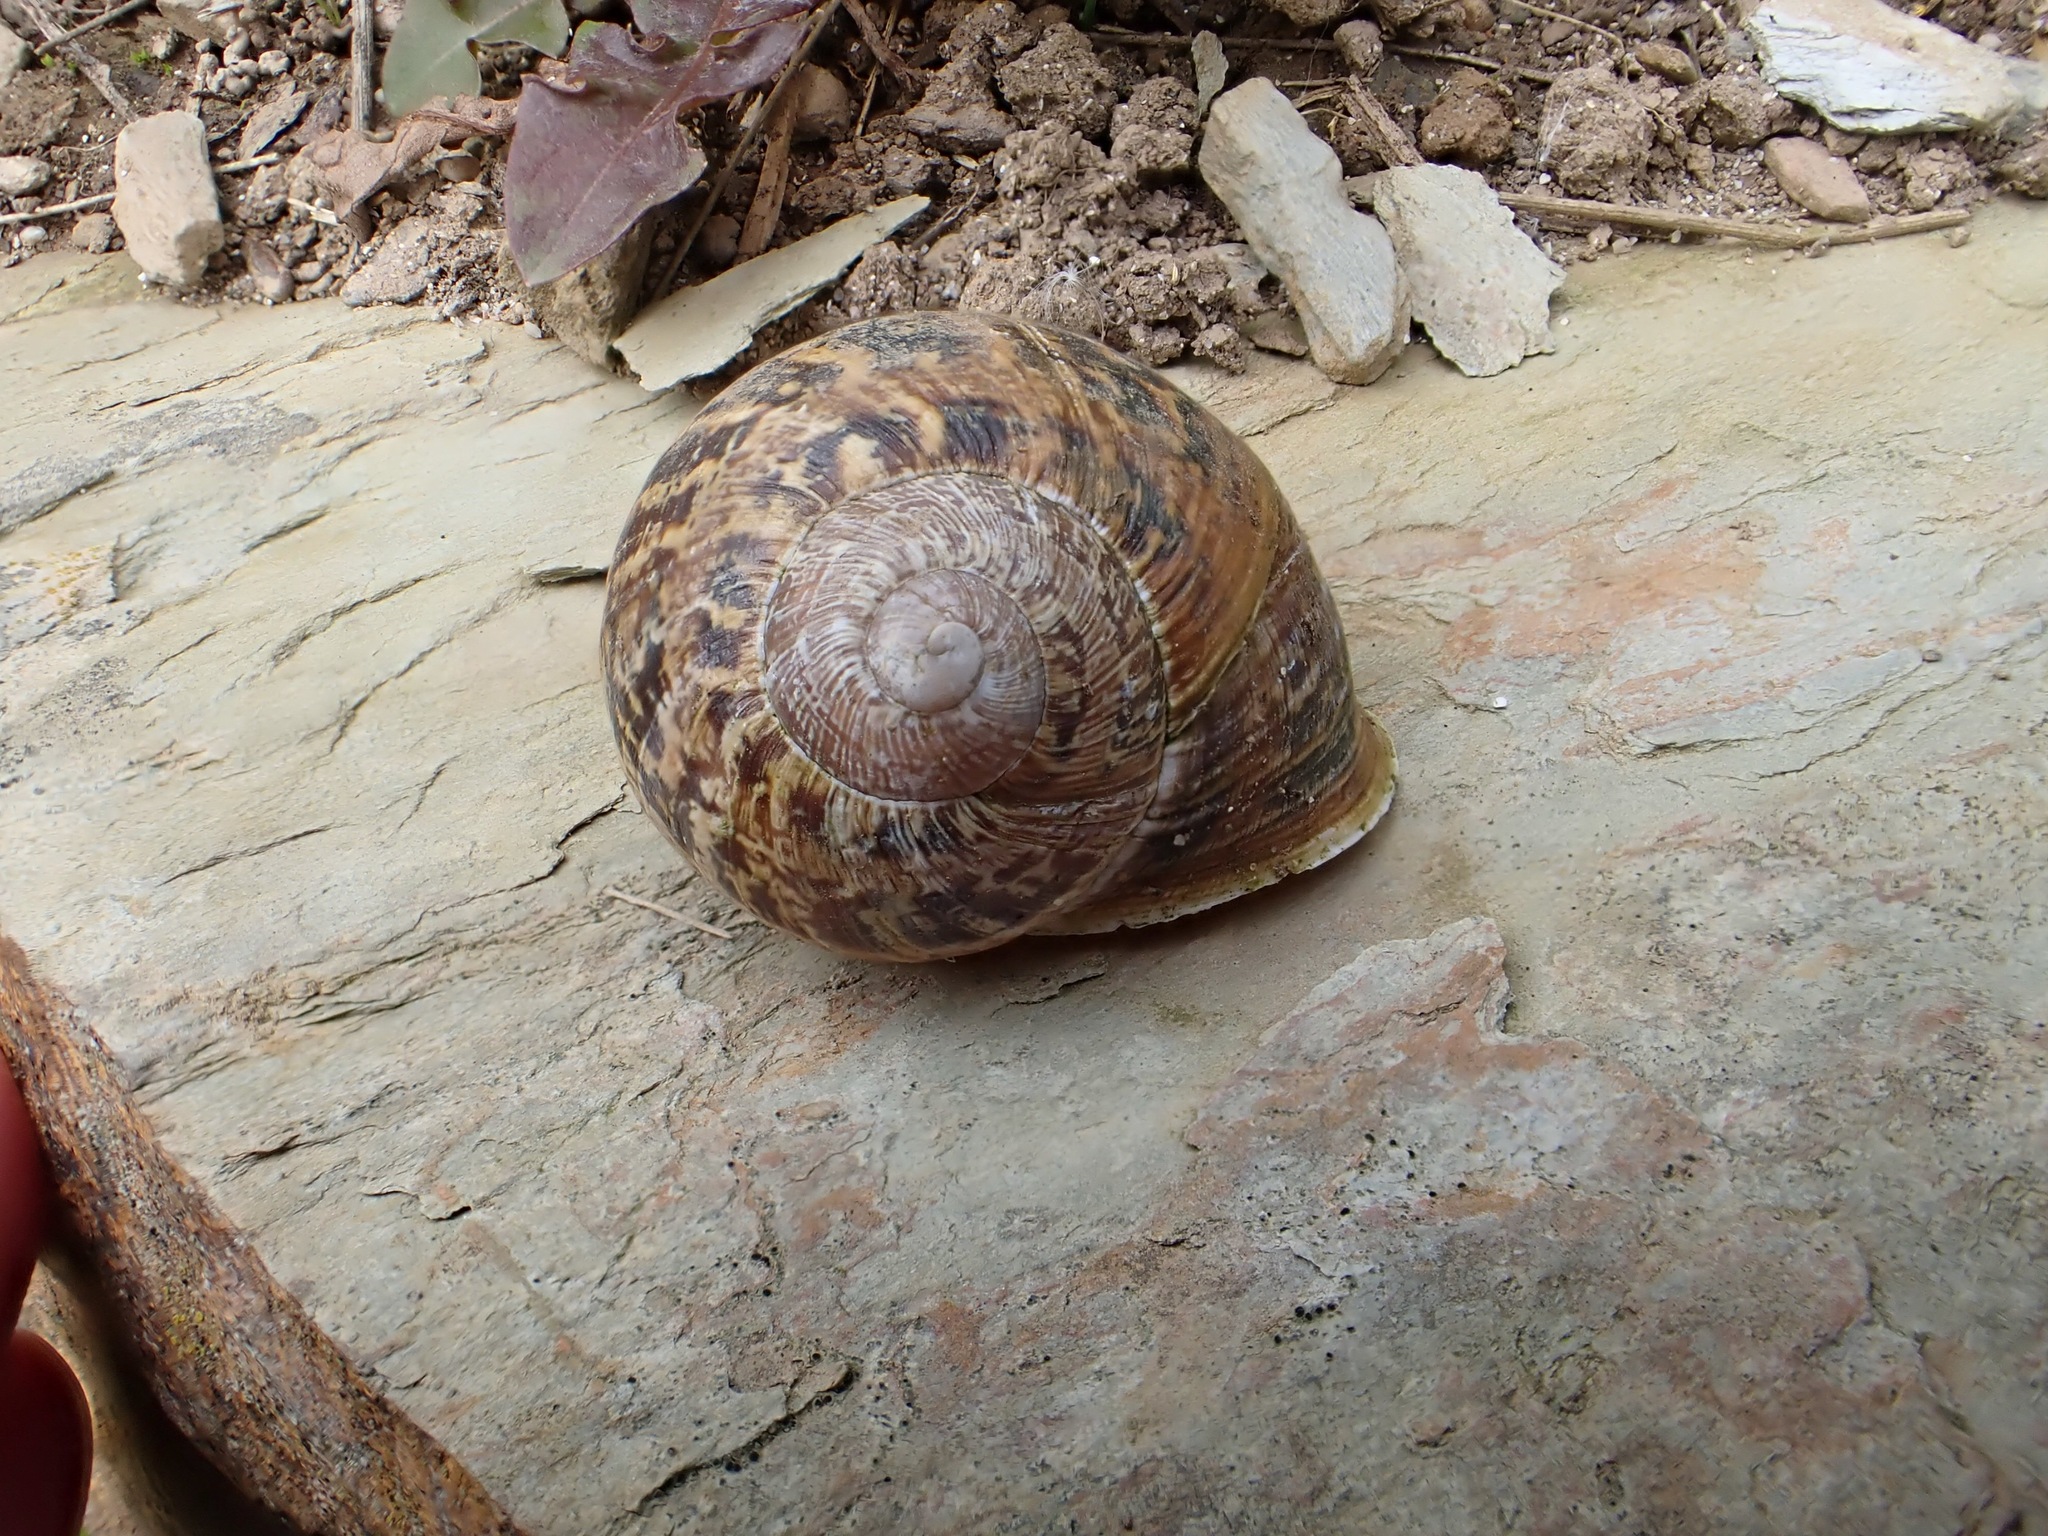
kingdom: Animalia
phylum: Mollusca
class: Gastropoda
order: Stylommatophora
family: Helicidae
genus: Cornu
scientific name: Cornu aspersum
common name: Brown garden snail
